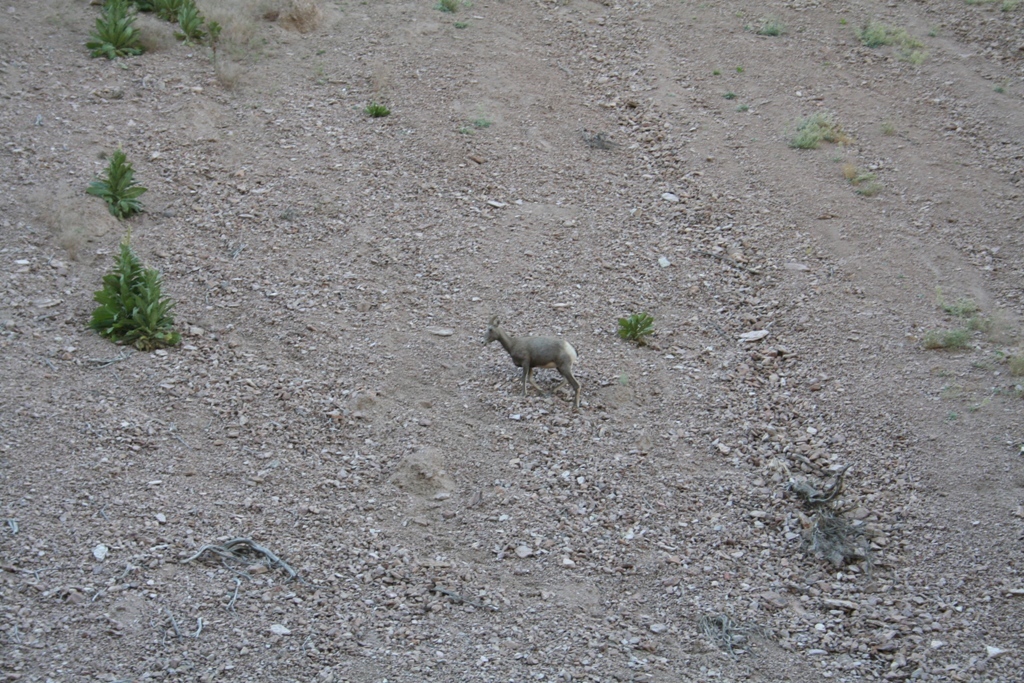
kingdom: Animalia
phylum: Chordata
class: Mammalia
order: Artiodactyla
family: Bovidae
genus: Ovis
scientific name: Ovis canadensis
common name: Bighorn sheep
